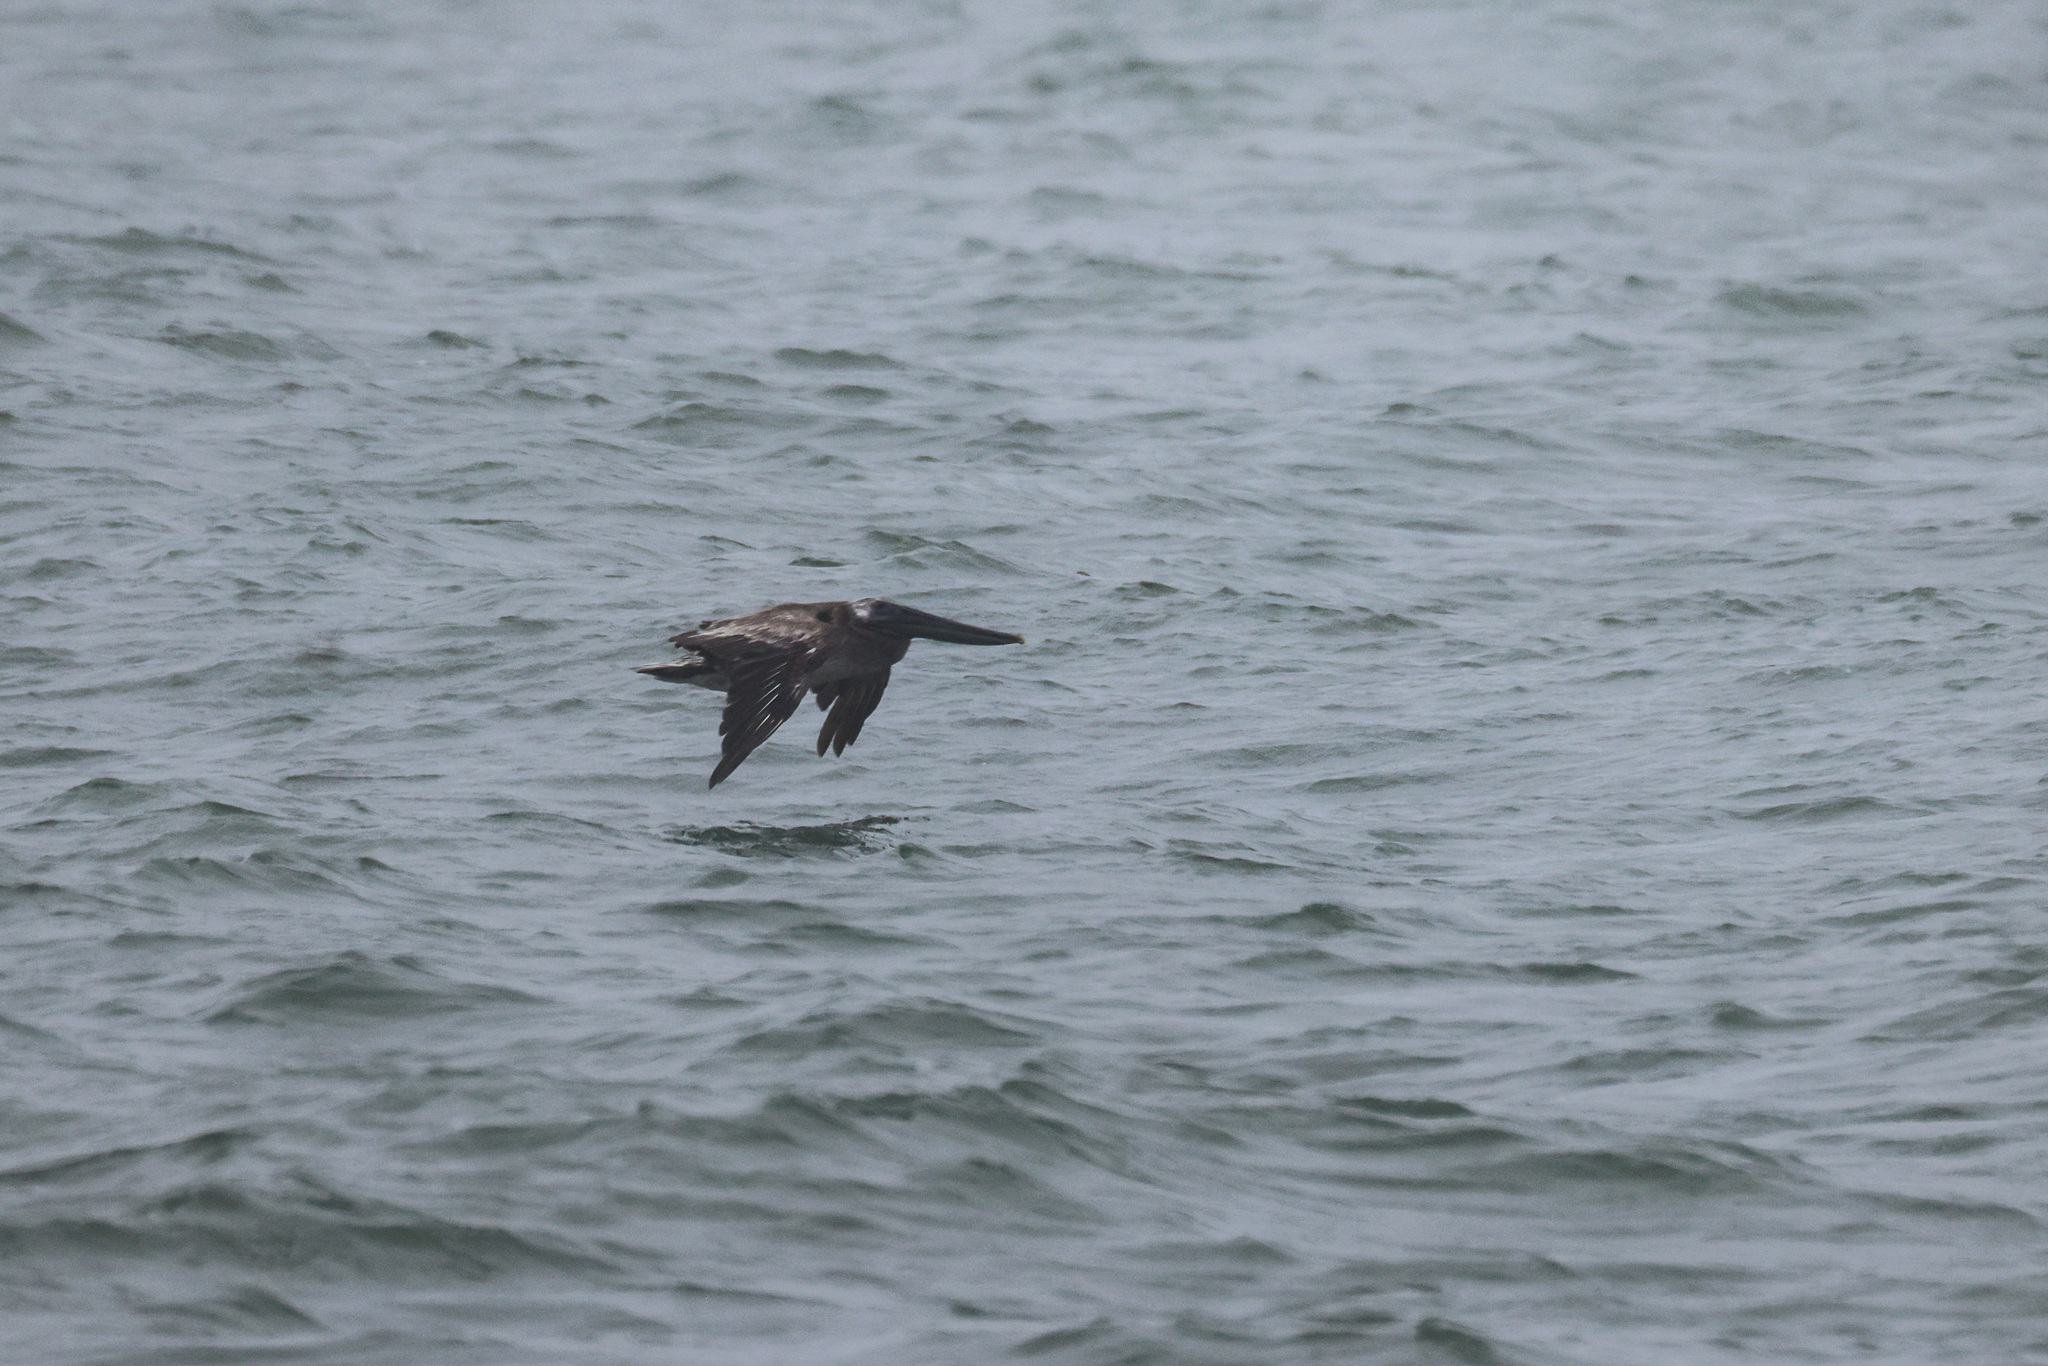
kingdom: Animalia
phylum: Chordata
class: Aves
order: Pelecaniformes
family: Pelecanidae
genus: Pelecanus
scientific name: Pelecanus occidentalis
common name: Brown pelican
